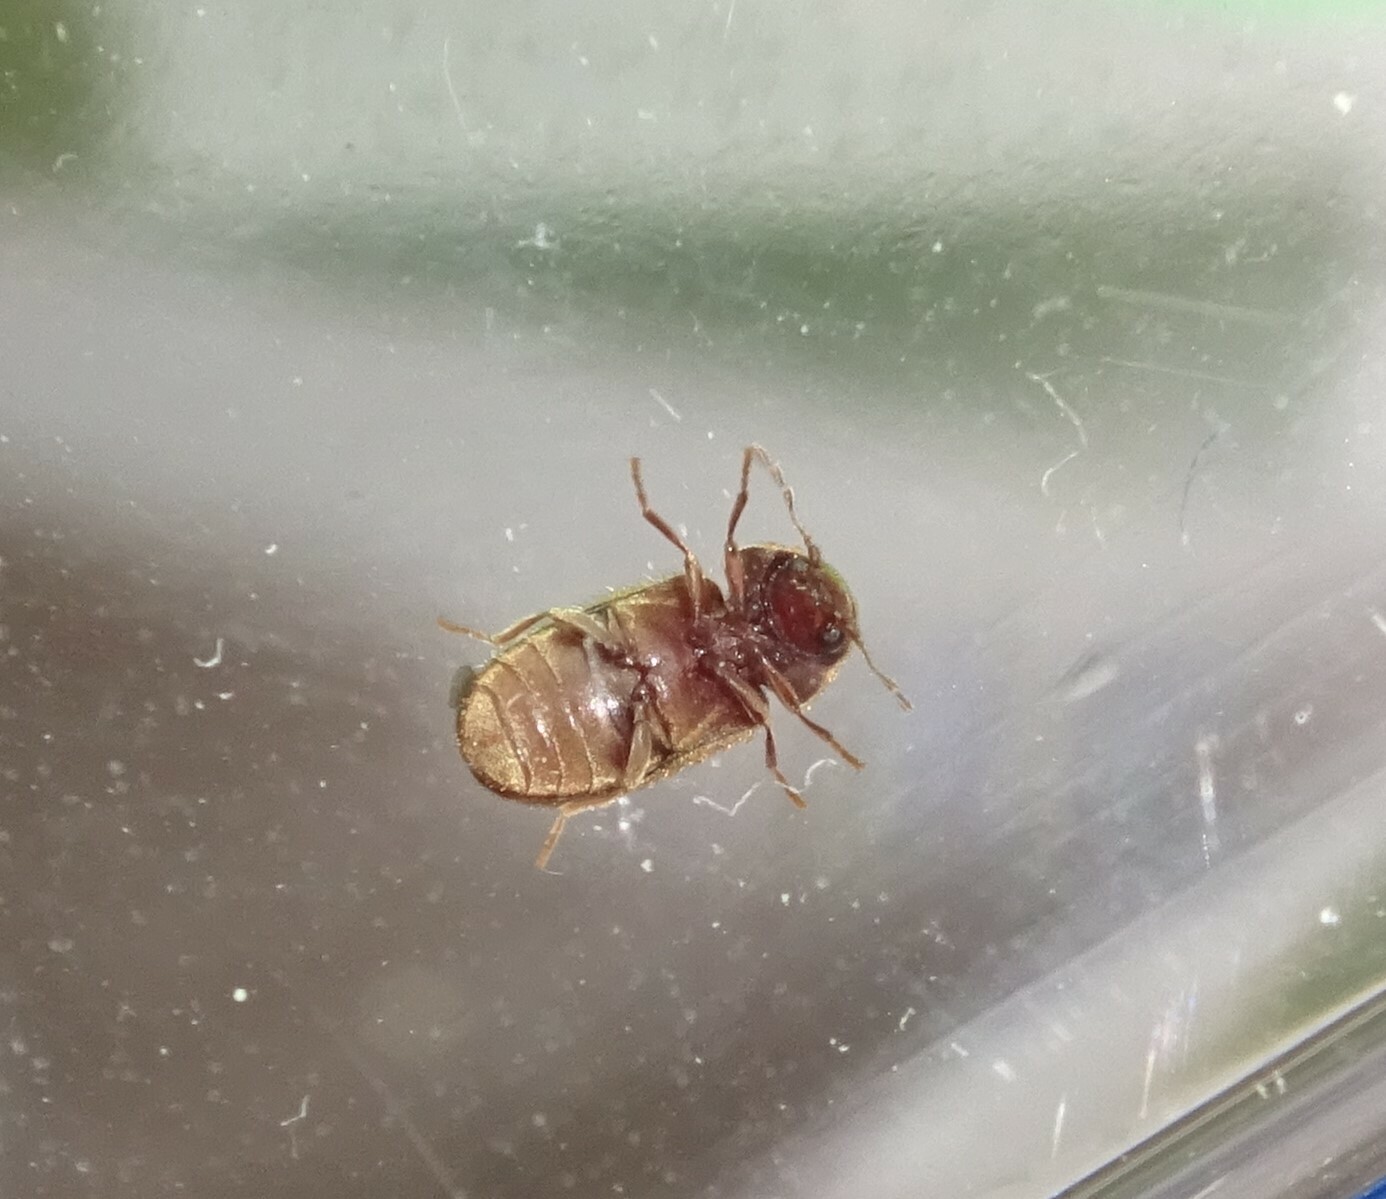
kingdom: Animalia
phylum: Arthropoda
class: Insecta
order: Coleoptera
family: Anobiidae
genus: Stegobium
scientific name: Stegobium paniceum
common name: Drugstore beetle
